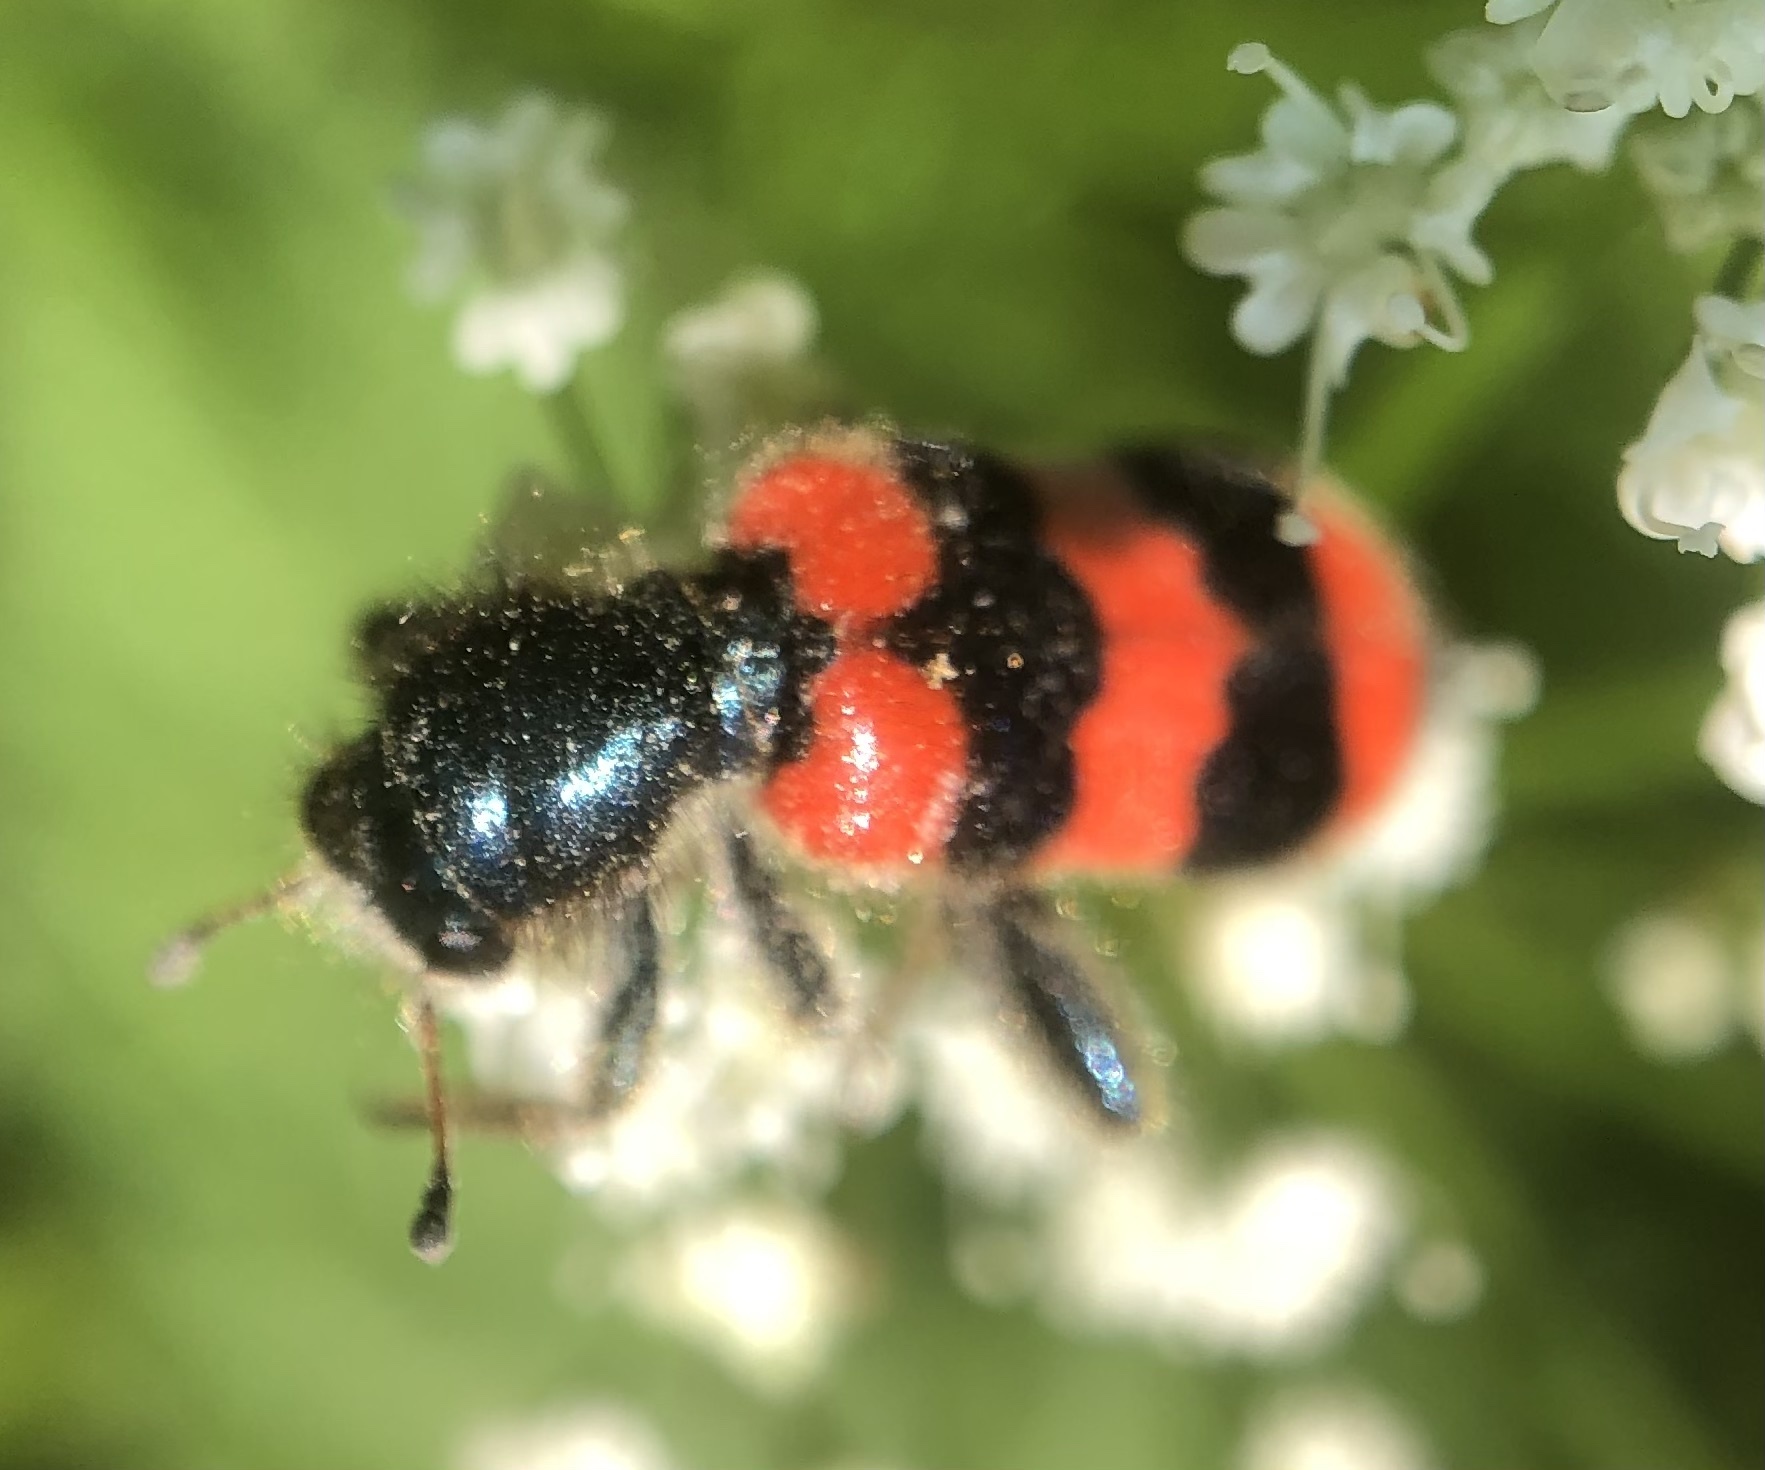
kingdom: Animalia
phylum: Arthropoda
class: Insecta
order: Coleoptera
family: Cleridae
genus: Trichodes
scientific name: Trichodes apiarius
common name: Bee-eating beetle
